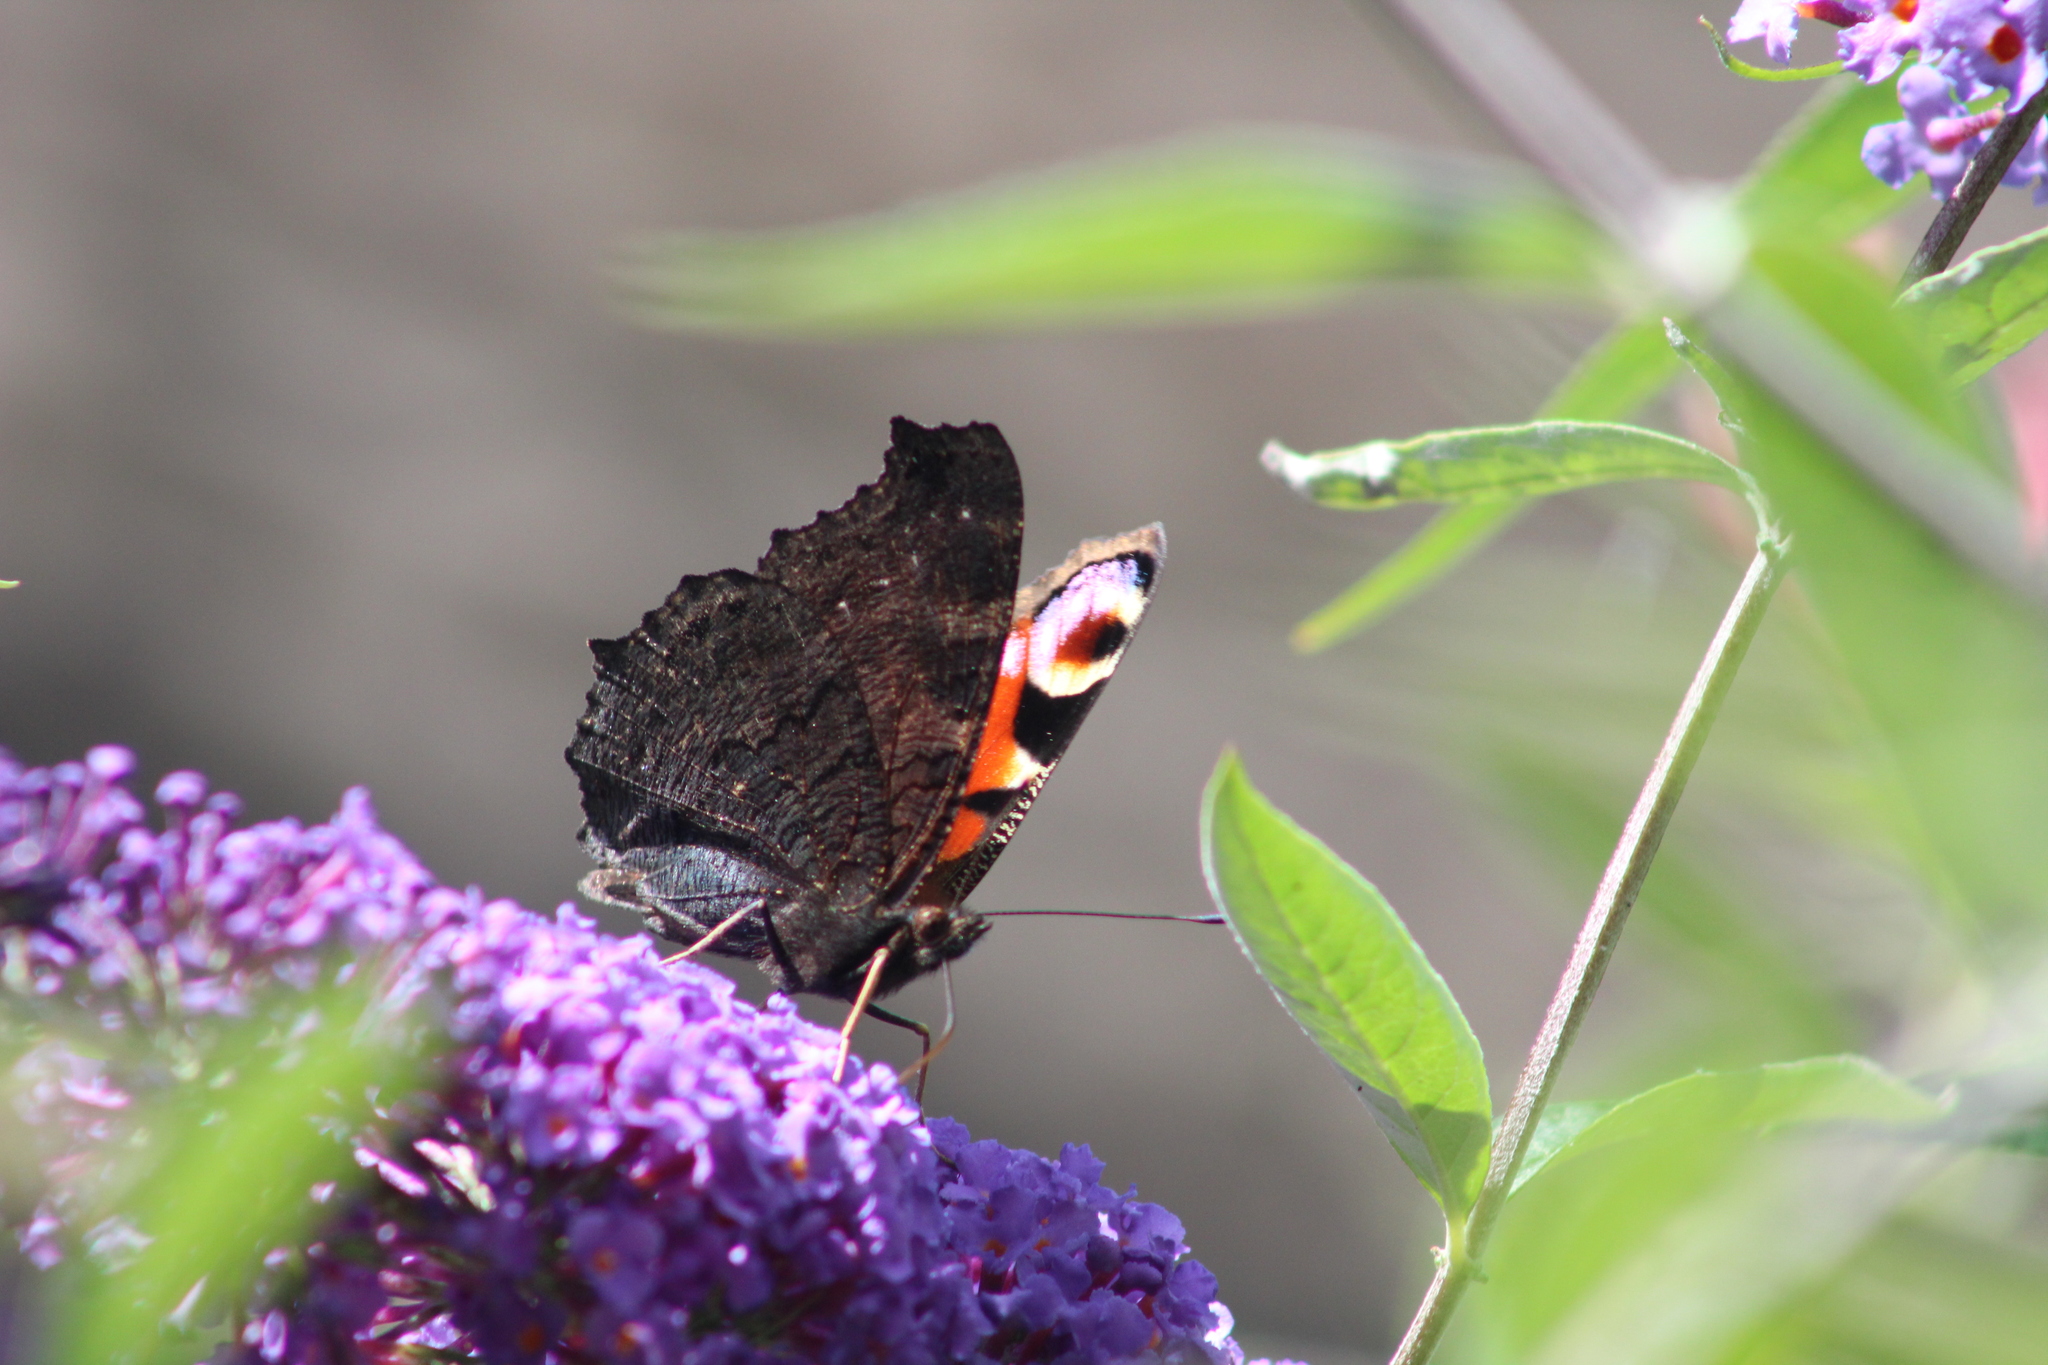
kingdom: Animalia
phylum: Arthropoda
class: Insecta
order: Lepidoptera
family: Nymphalidae
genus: Aglais
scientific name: Aglais io
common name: Peacock
